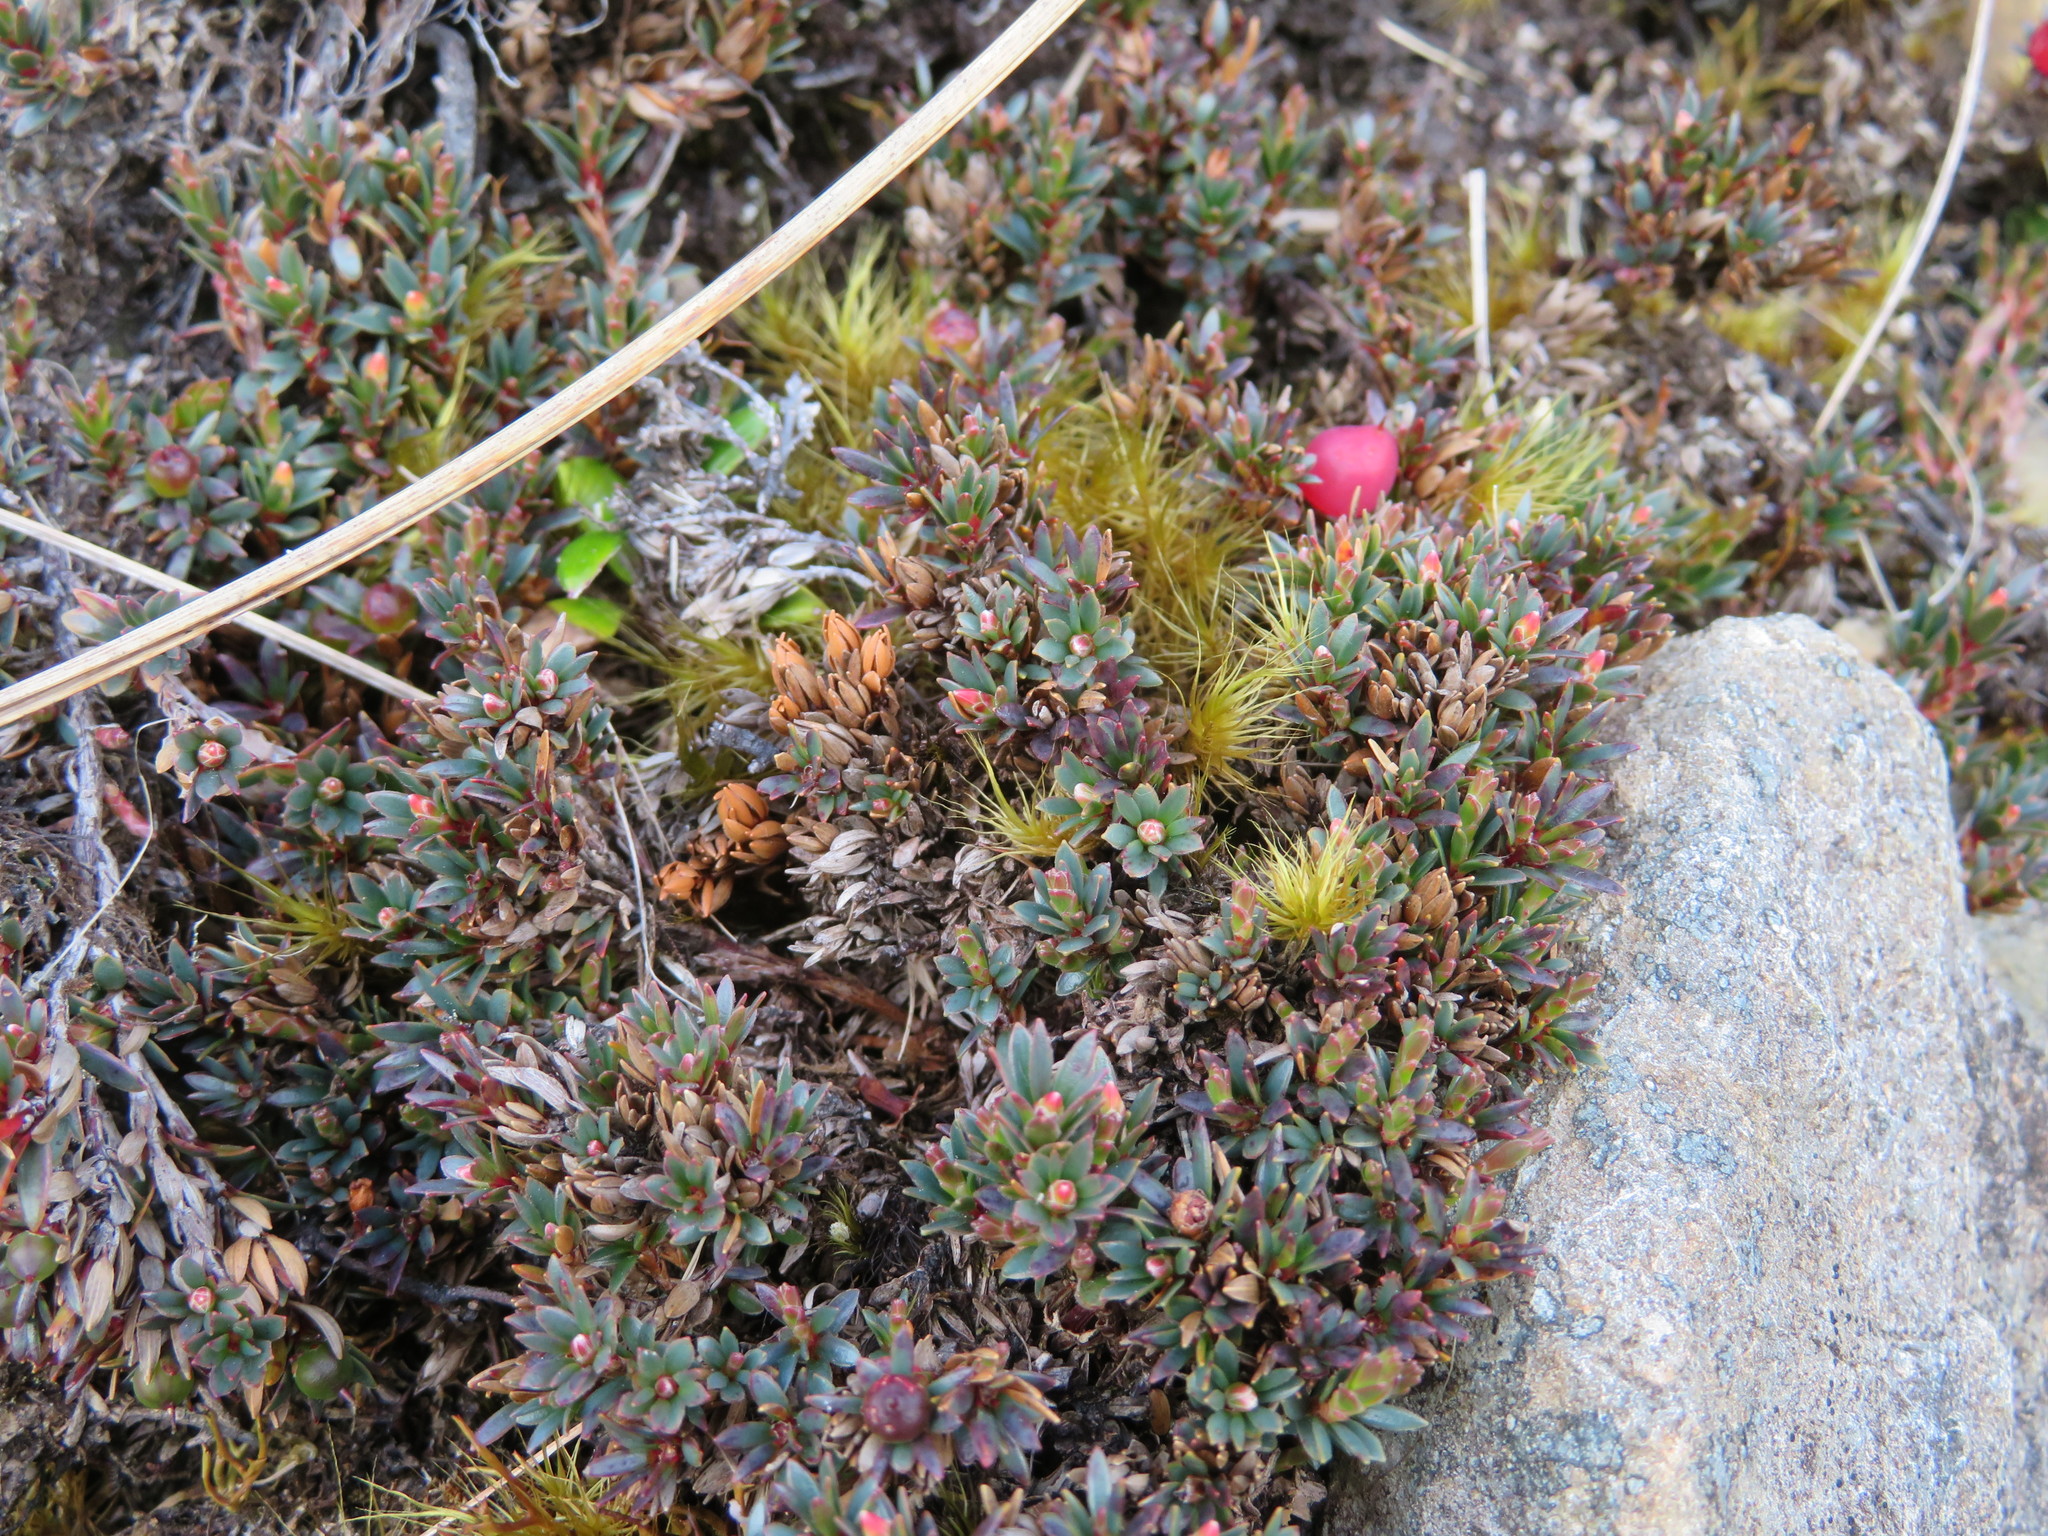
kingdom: Plantae
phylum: Tracheophyta
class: Magnoliopsida
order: Ericales
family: Ericaceae
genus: Pentachondra
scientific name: Pentachondra pumila
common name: Carpet-heath
